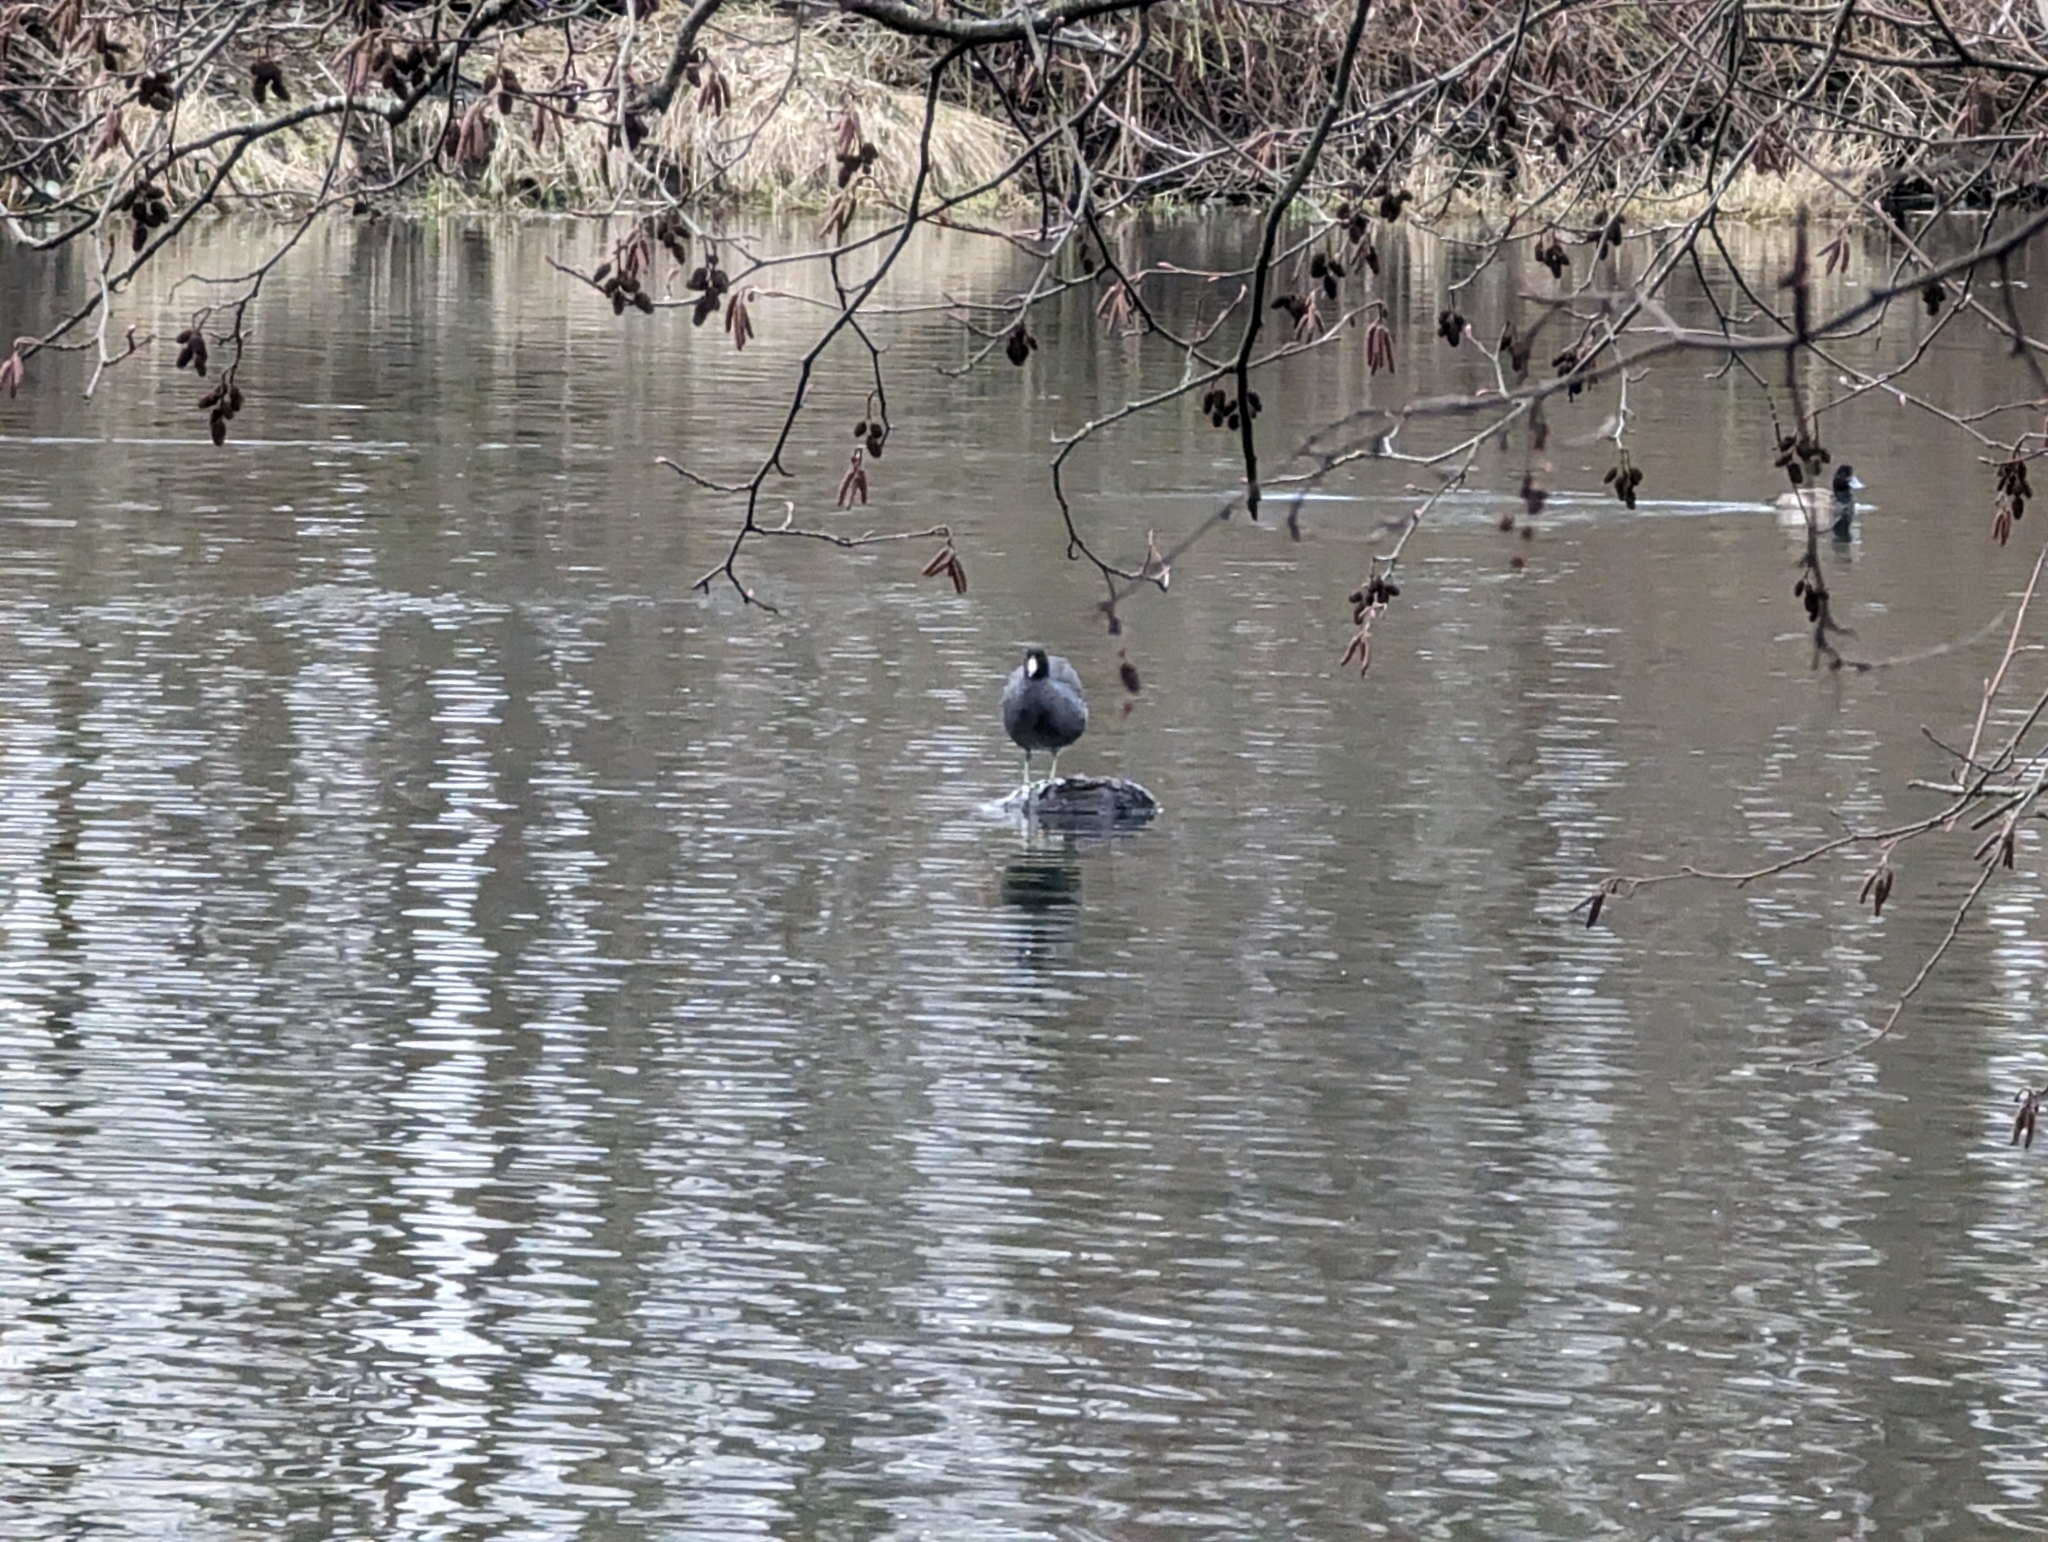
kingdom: Animalia
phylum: Chordata
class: Aves
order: Gruiformes
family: Rallidae
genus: Fulica
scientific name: Fulica americana
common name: American coot
